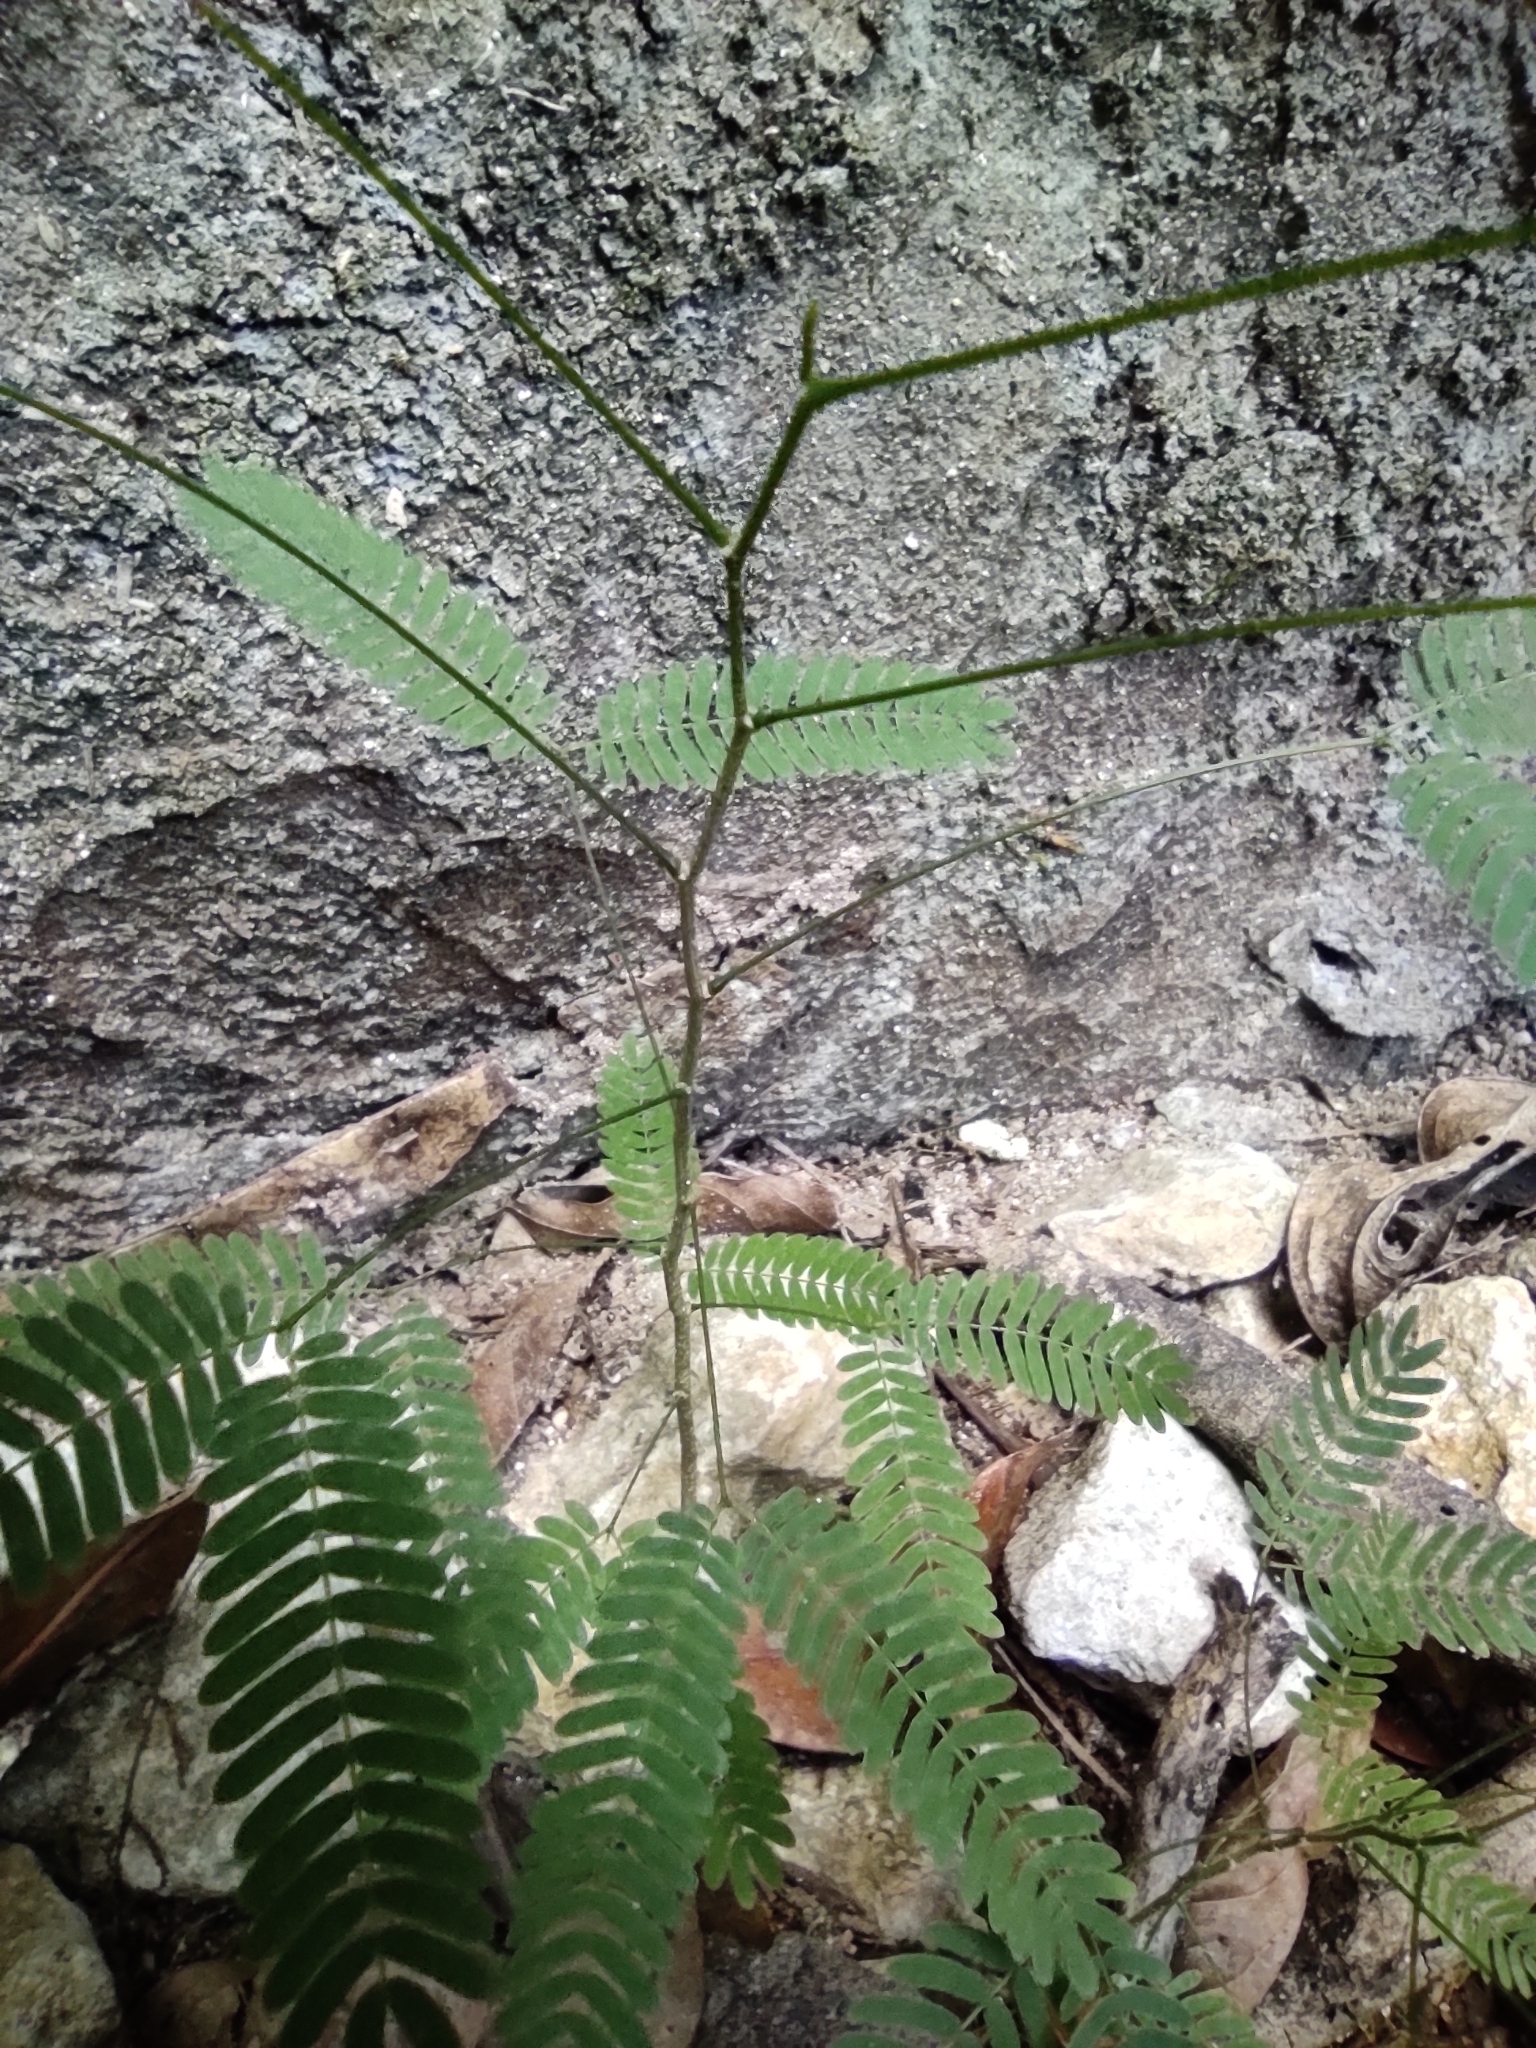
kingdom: Plantae
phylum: Tracheophyta
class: Magnoliopsida
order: Fabales
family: Fabaceae
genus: Mimosa
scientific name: Mimosa pudica
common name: Sensitive plant
